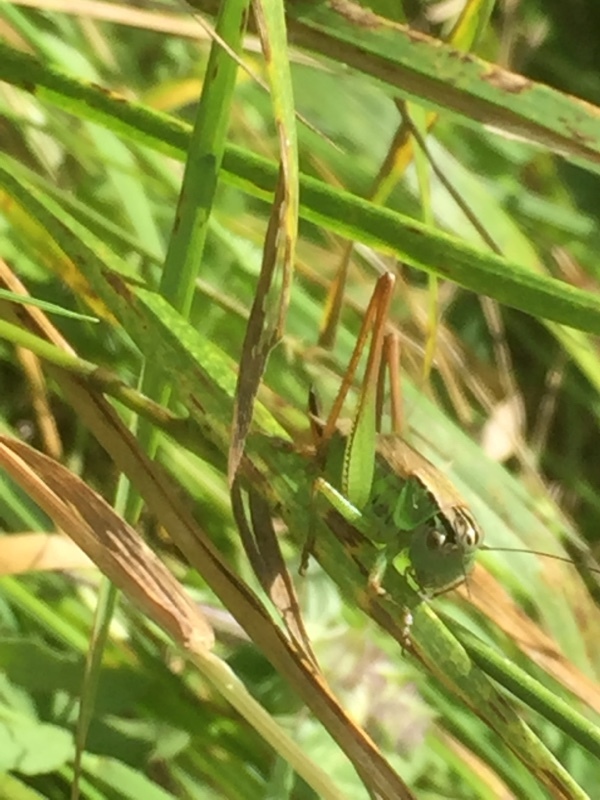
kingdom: Animalia
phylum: Arthropoda
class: Insecta
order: Orthoptera
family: Tettigoniidae
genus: Roeseliana
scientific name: Roeseliana roeselii
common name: Roesel's bush cricket
